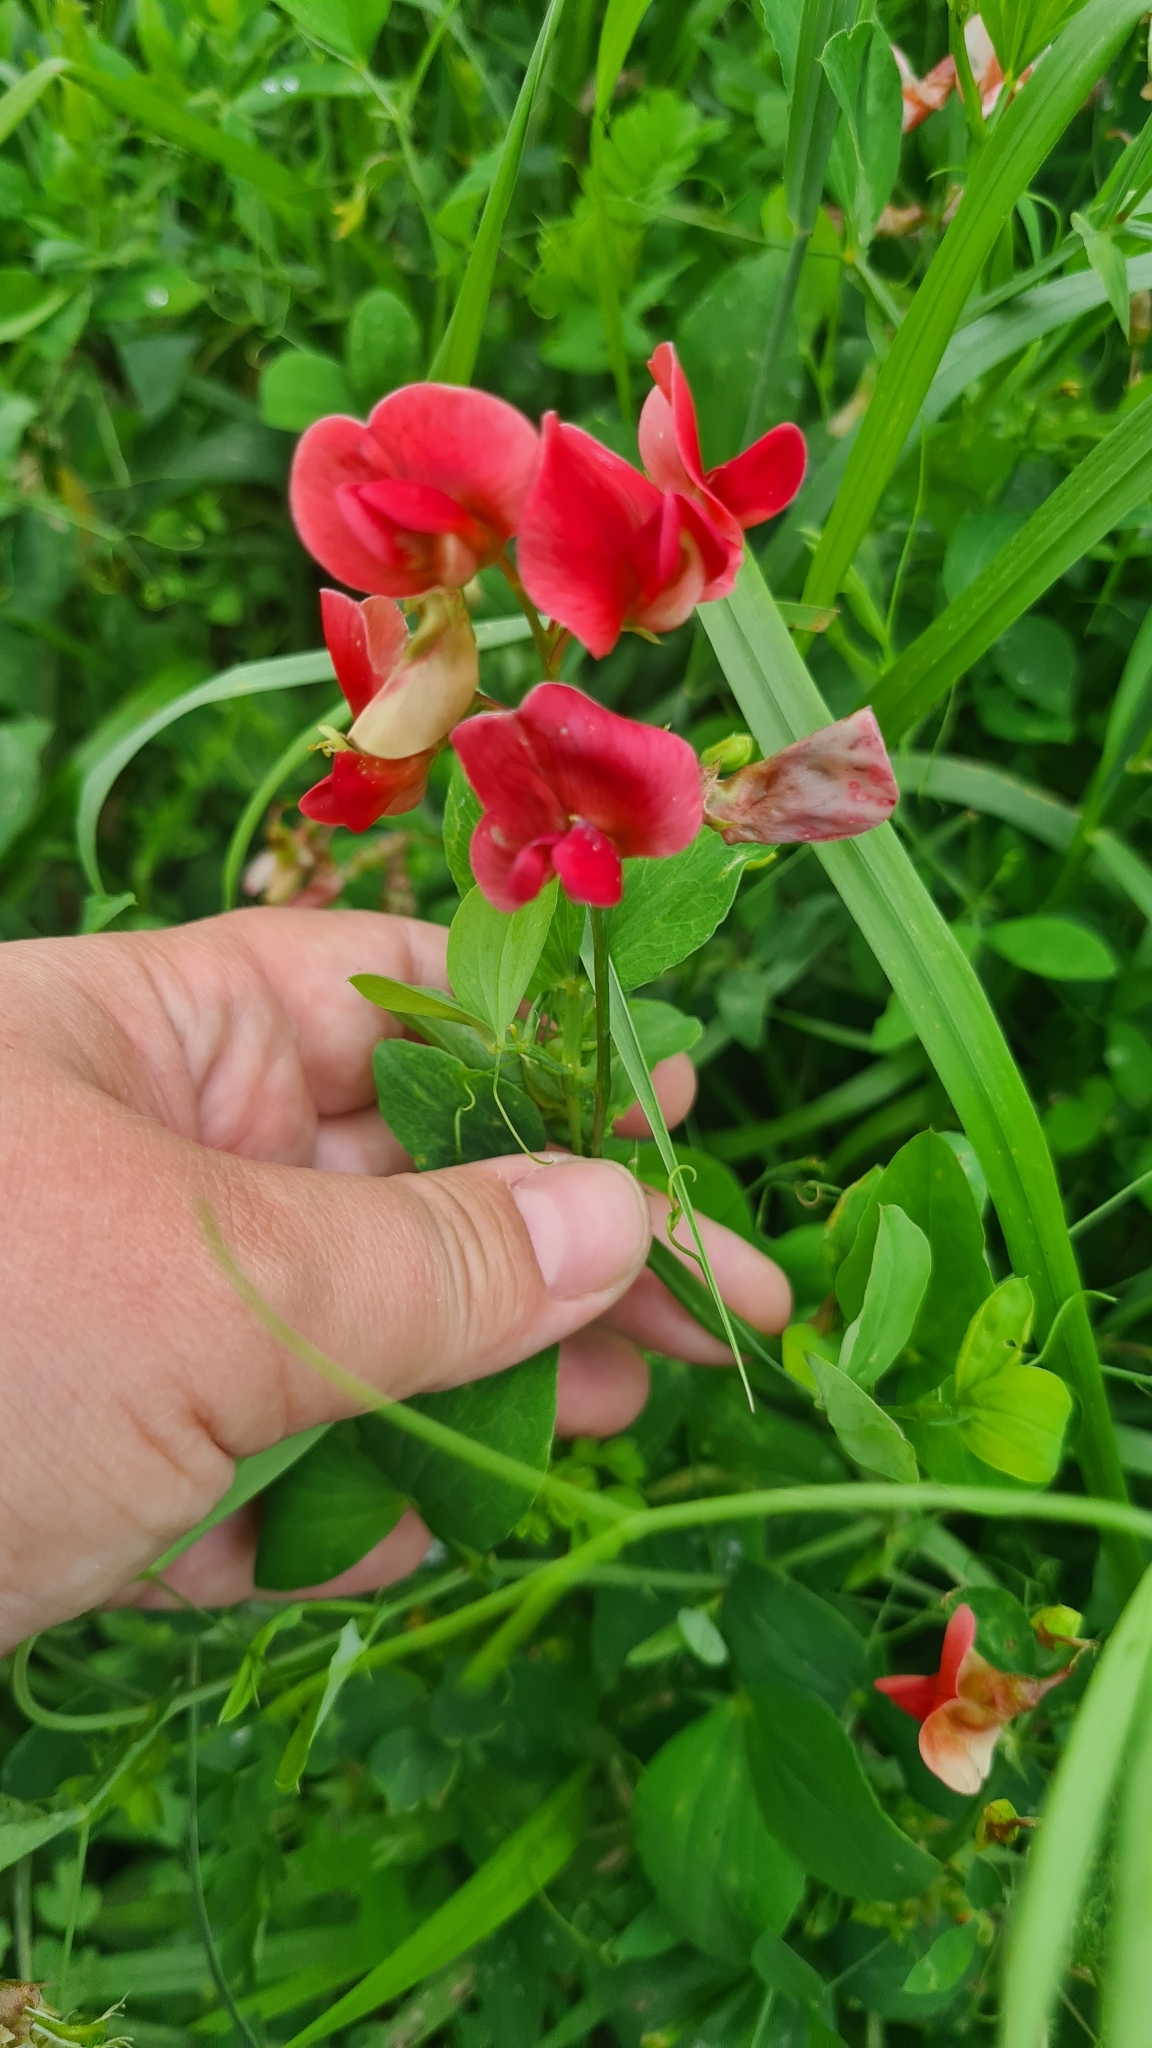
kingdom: Plantae
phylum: Tracheophyta
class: Magnoliopsida
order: Fabales
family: Fabaceae
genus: Lathyrus
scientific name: Lathyrus rotundifolius
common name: Round-leaf vetchling
